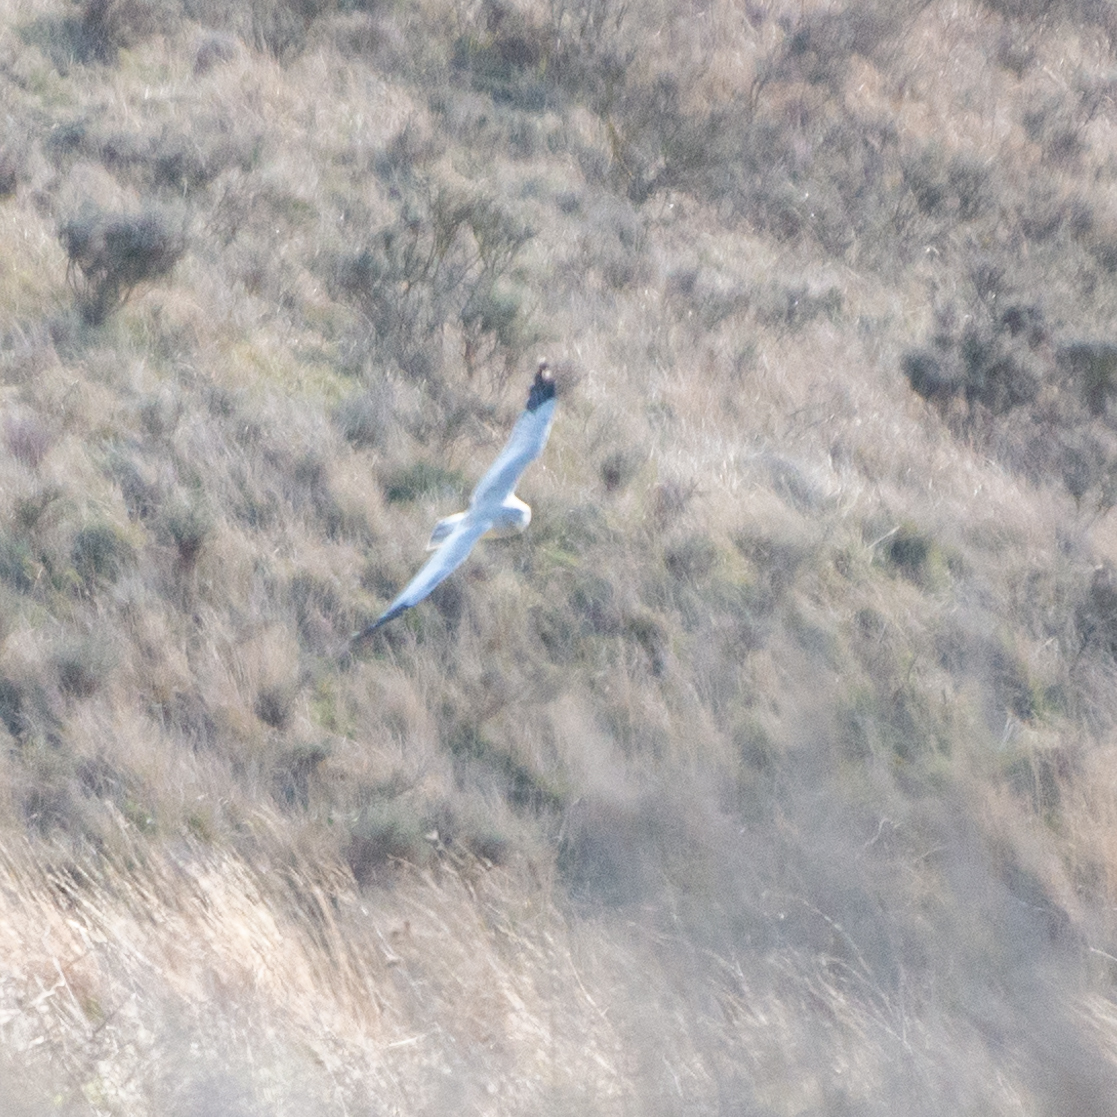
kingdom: Animalia
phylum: Chordata
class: Aves
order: Accipitriformes
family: Accipitridae
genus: Circus
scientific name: Circus cyaneus
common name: Hen harrier
